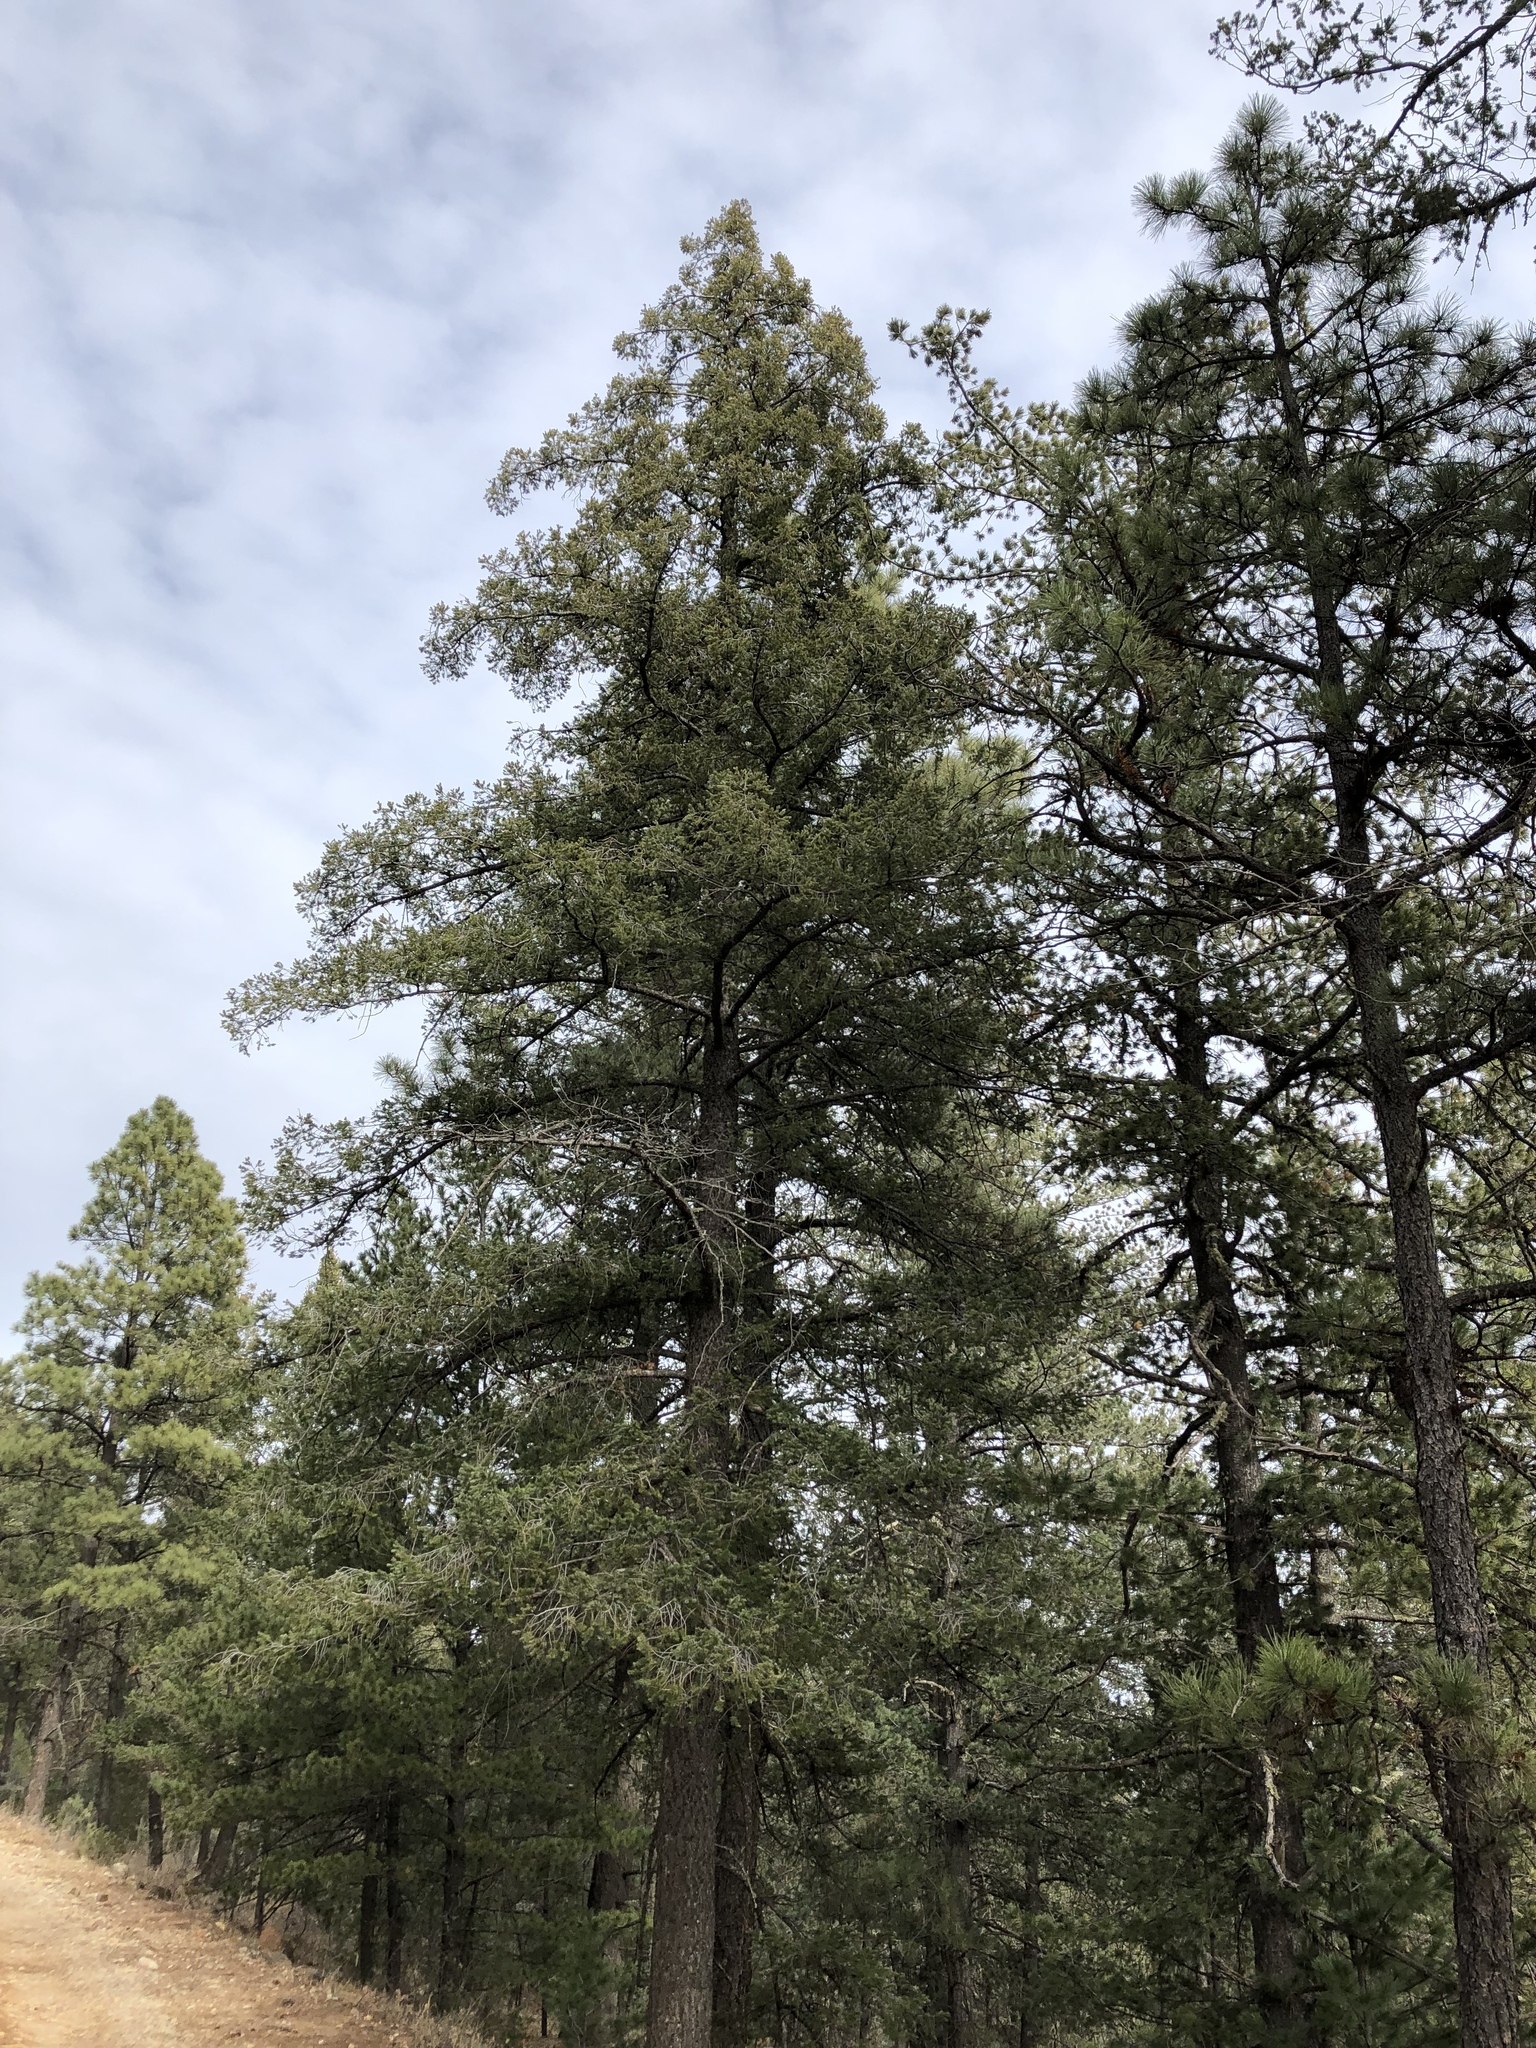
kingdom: Plantae
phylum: Tracheophyta
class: Pinopsida
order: Pinales
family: Pinaceae
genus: Pseudotsuga
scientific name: Pseudotsuga menziesii
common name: Douglas fir
